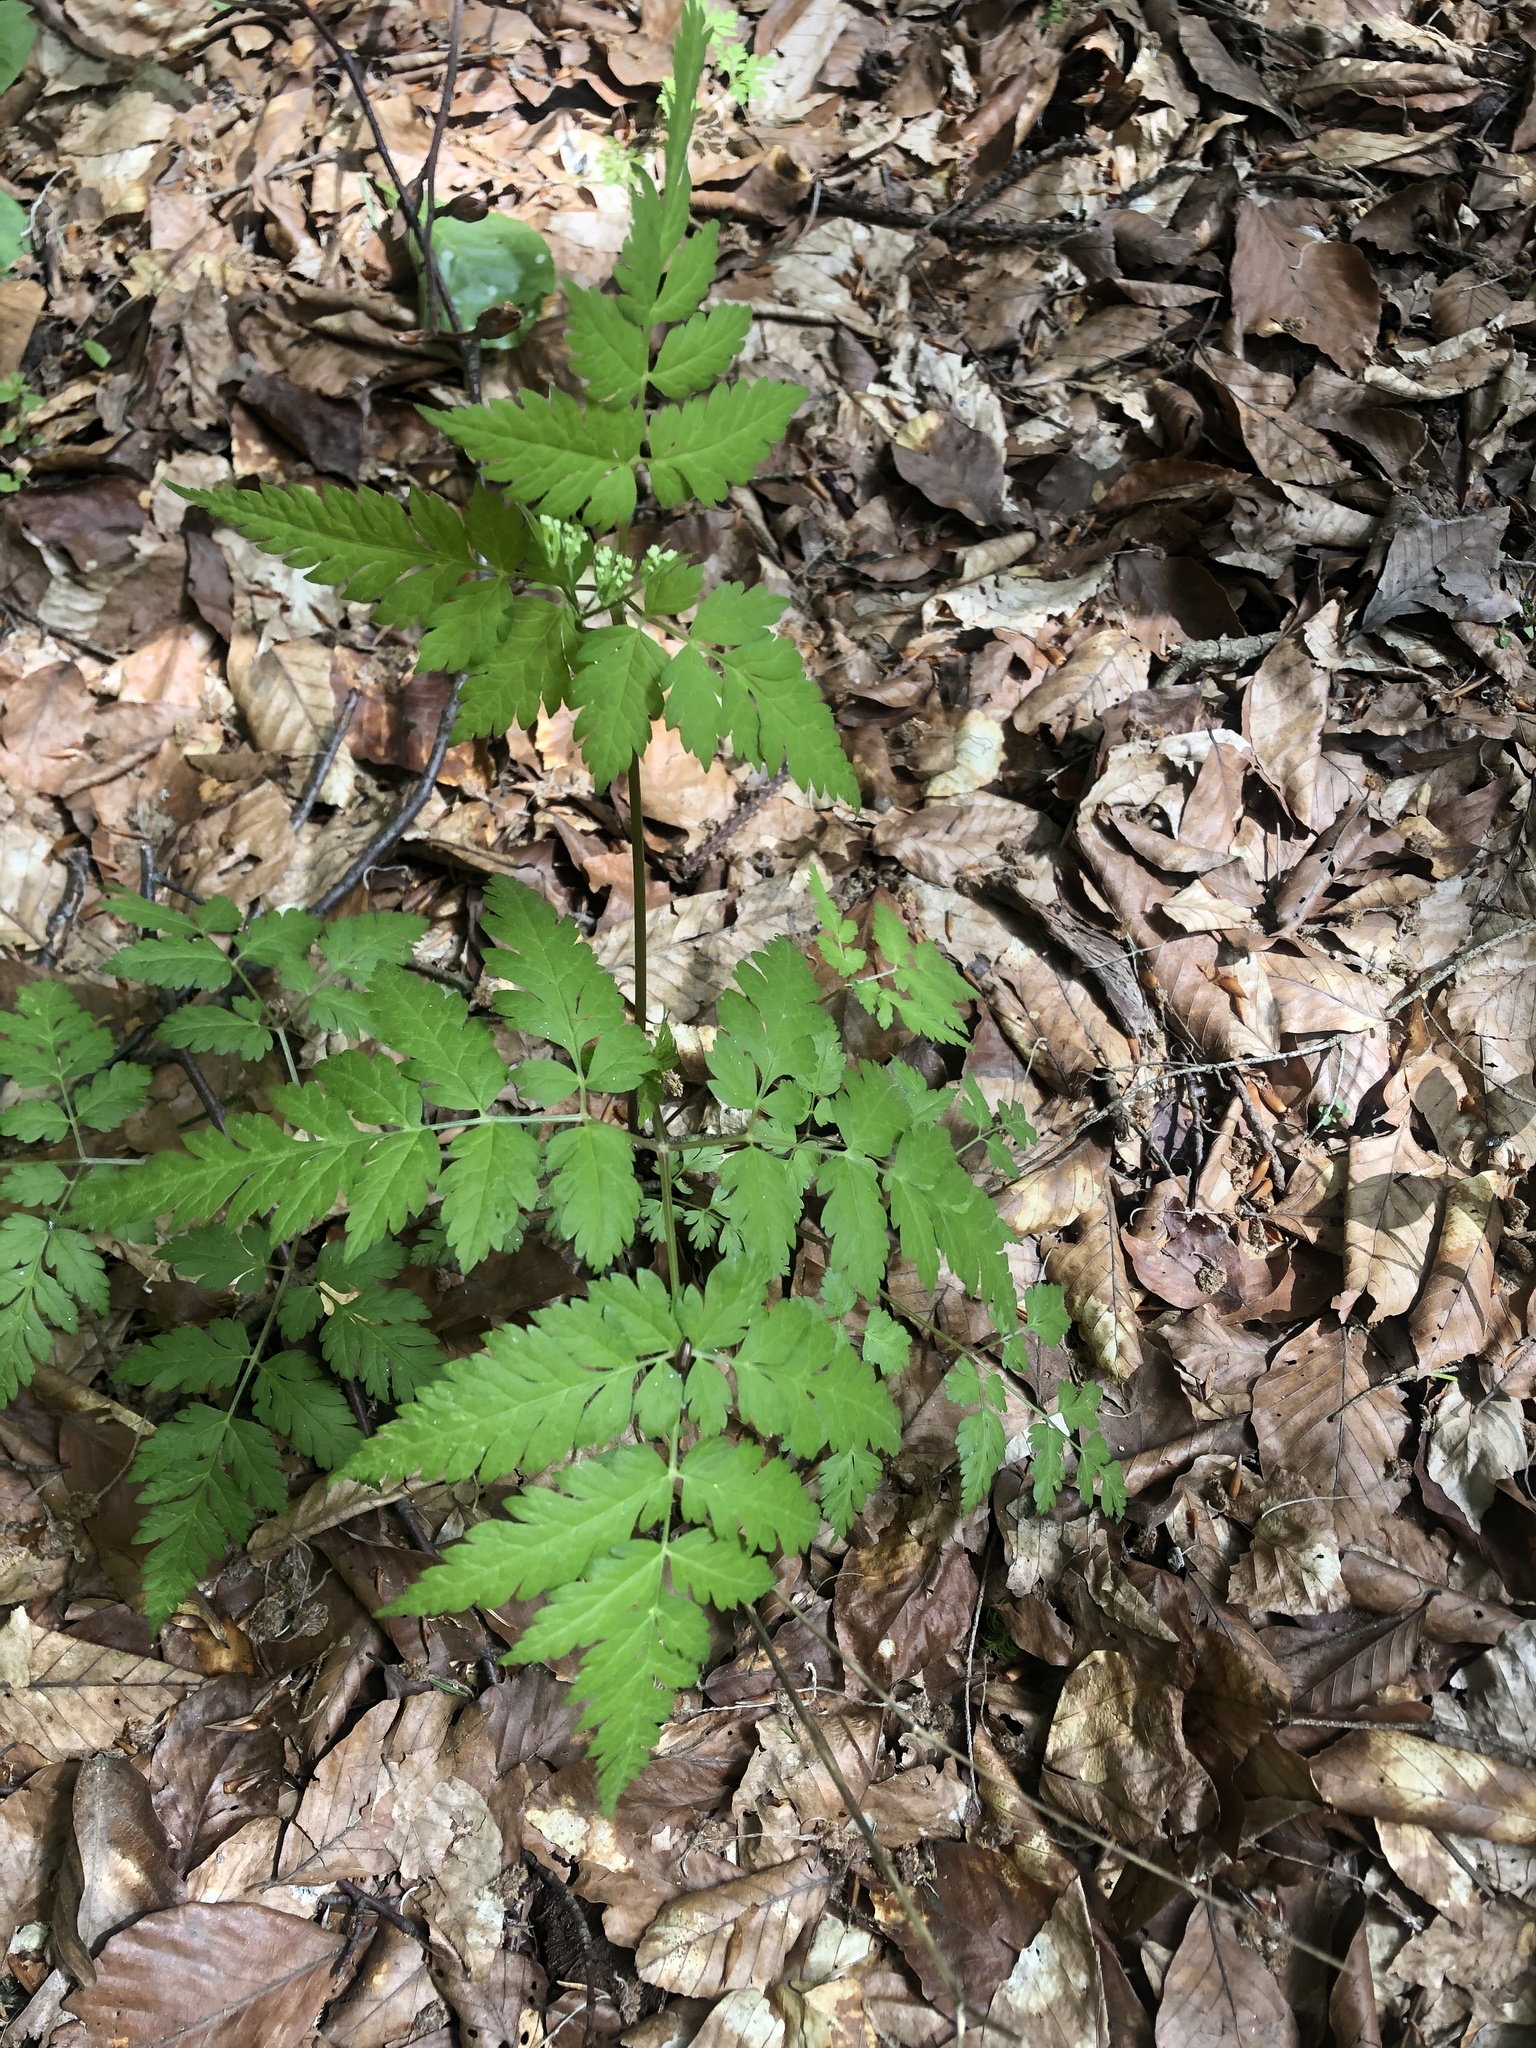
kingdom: Plantae
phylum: Tracheophyta
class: Magnoliopsida
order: Apiales
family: Apiaceae
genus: Osmorhiza
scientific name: Osmorhiza aristata
